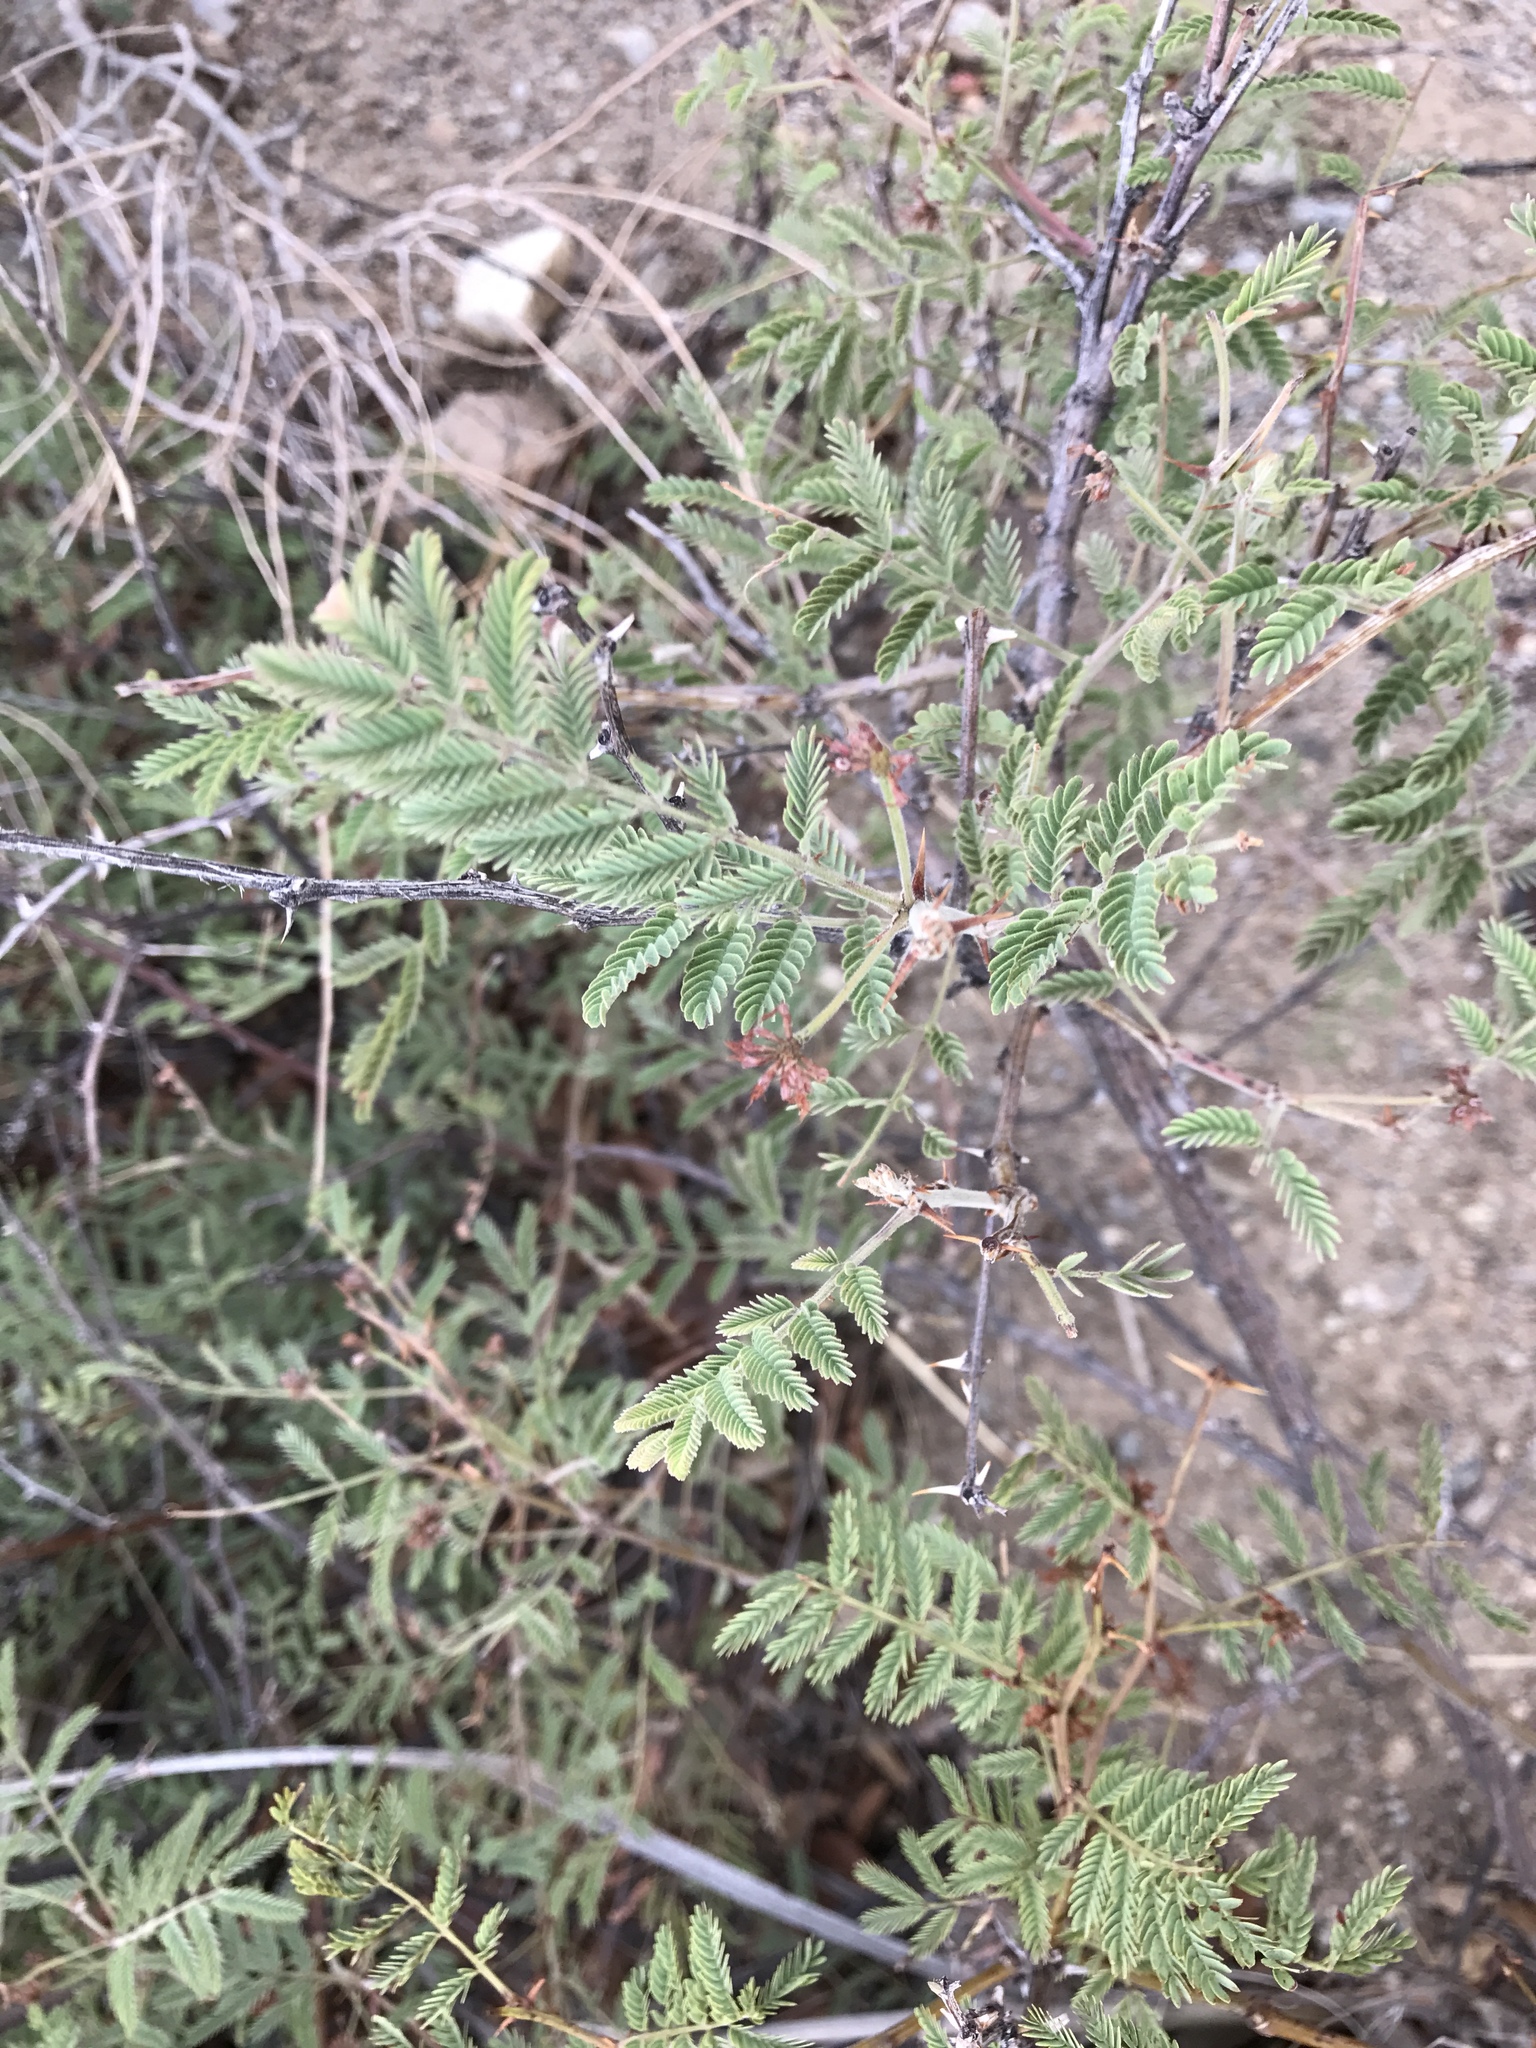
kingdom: Plantae
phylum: Tracheophyta
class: Magnoliopsida
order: Fabales
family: Fabaceae
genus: Mimosa
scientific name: Mimosa aculeaticarpa
